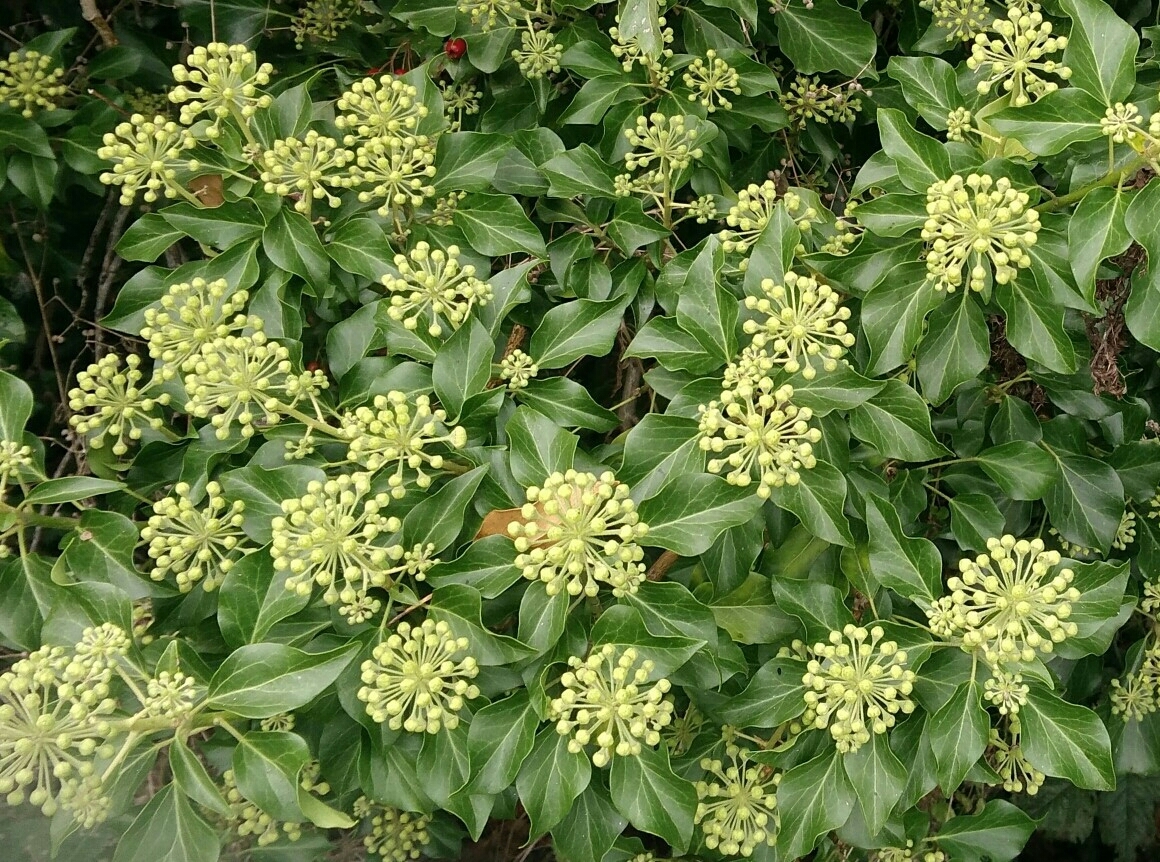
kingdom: Plantae
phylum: Tracheophyta
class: Magnoliopsida
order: Apiales
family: Araliaceae
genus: Hedera
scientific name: Hedera helix
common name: Ivy
